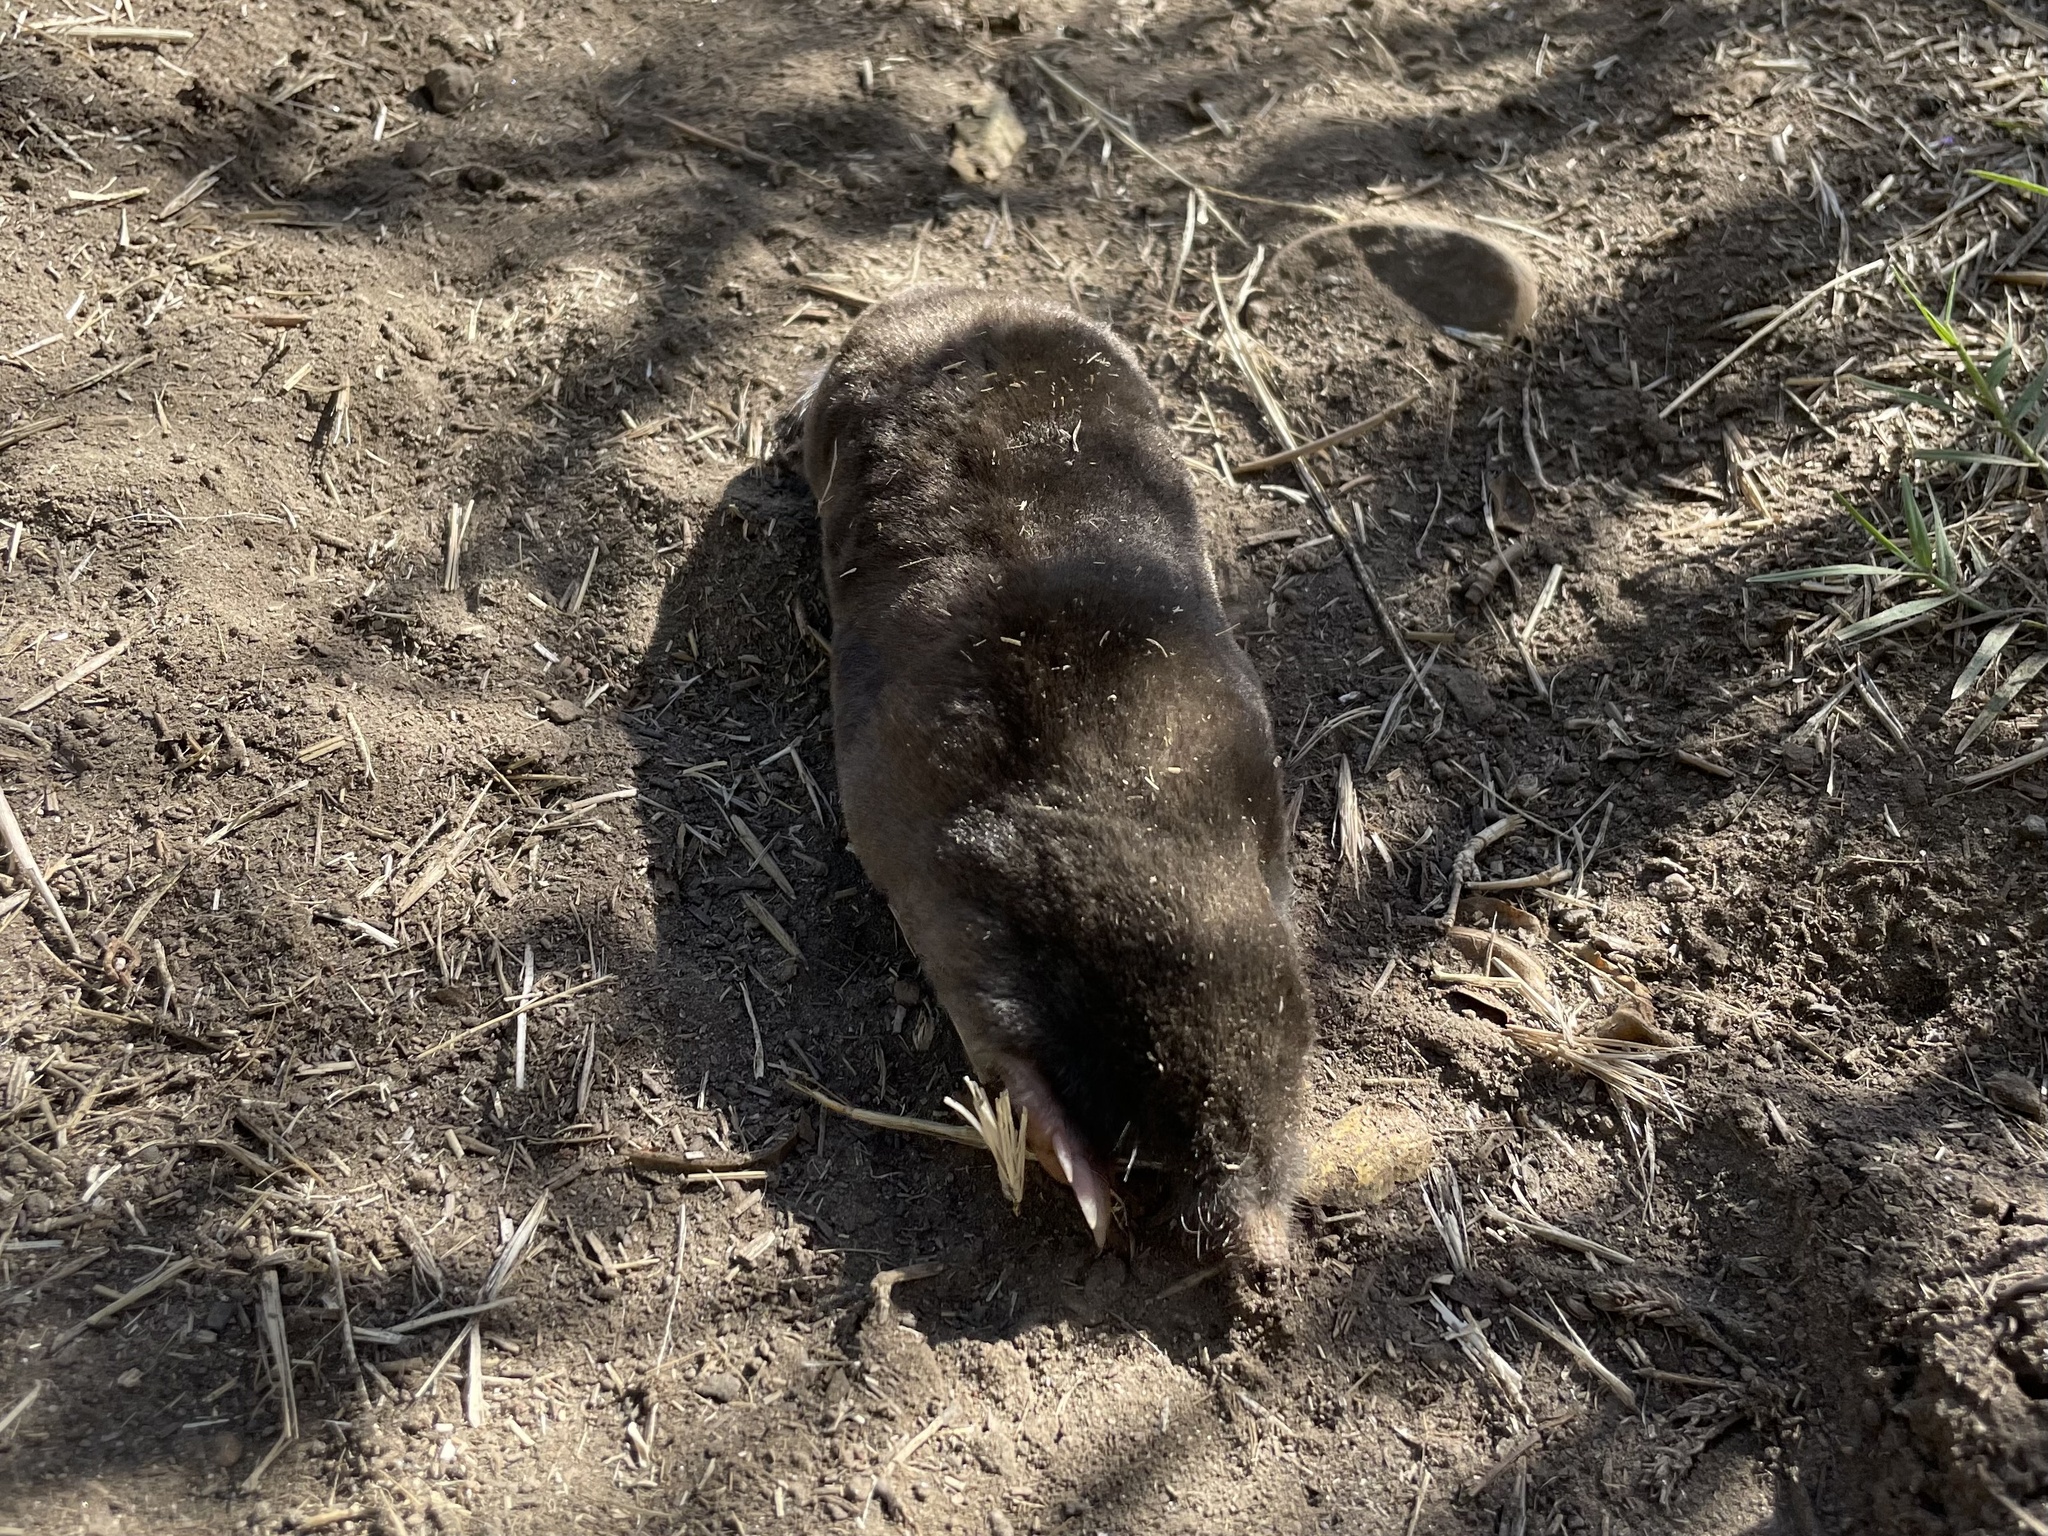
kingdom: Animalia
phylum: Chordata
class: Mammalia
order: Soricomorpha
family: Talpidae
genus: Scapanus
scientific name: Scapanus latimanus
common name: Broad-footed mole
